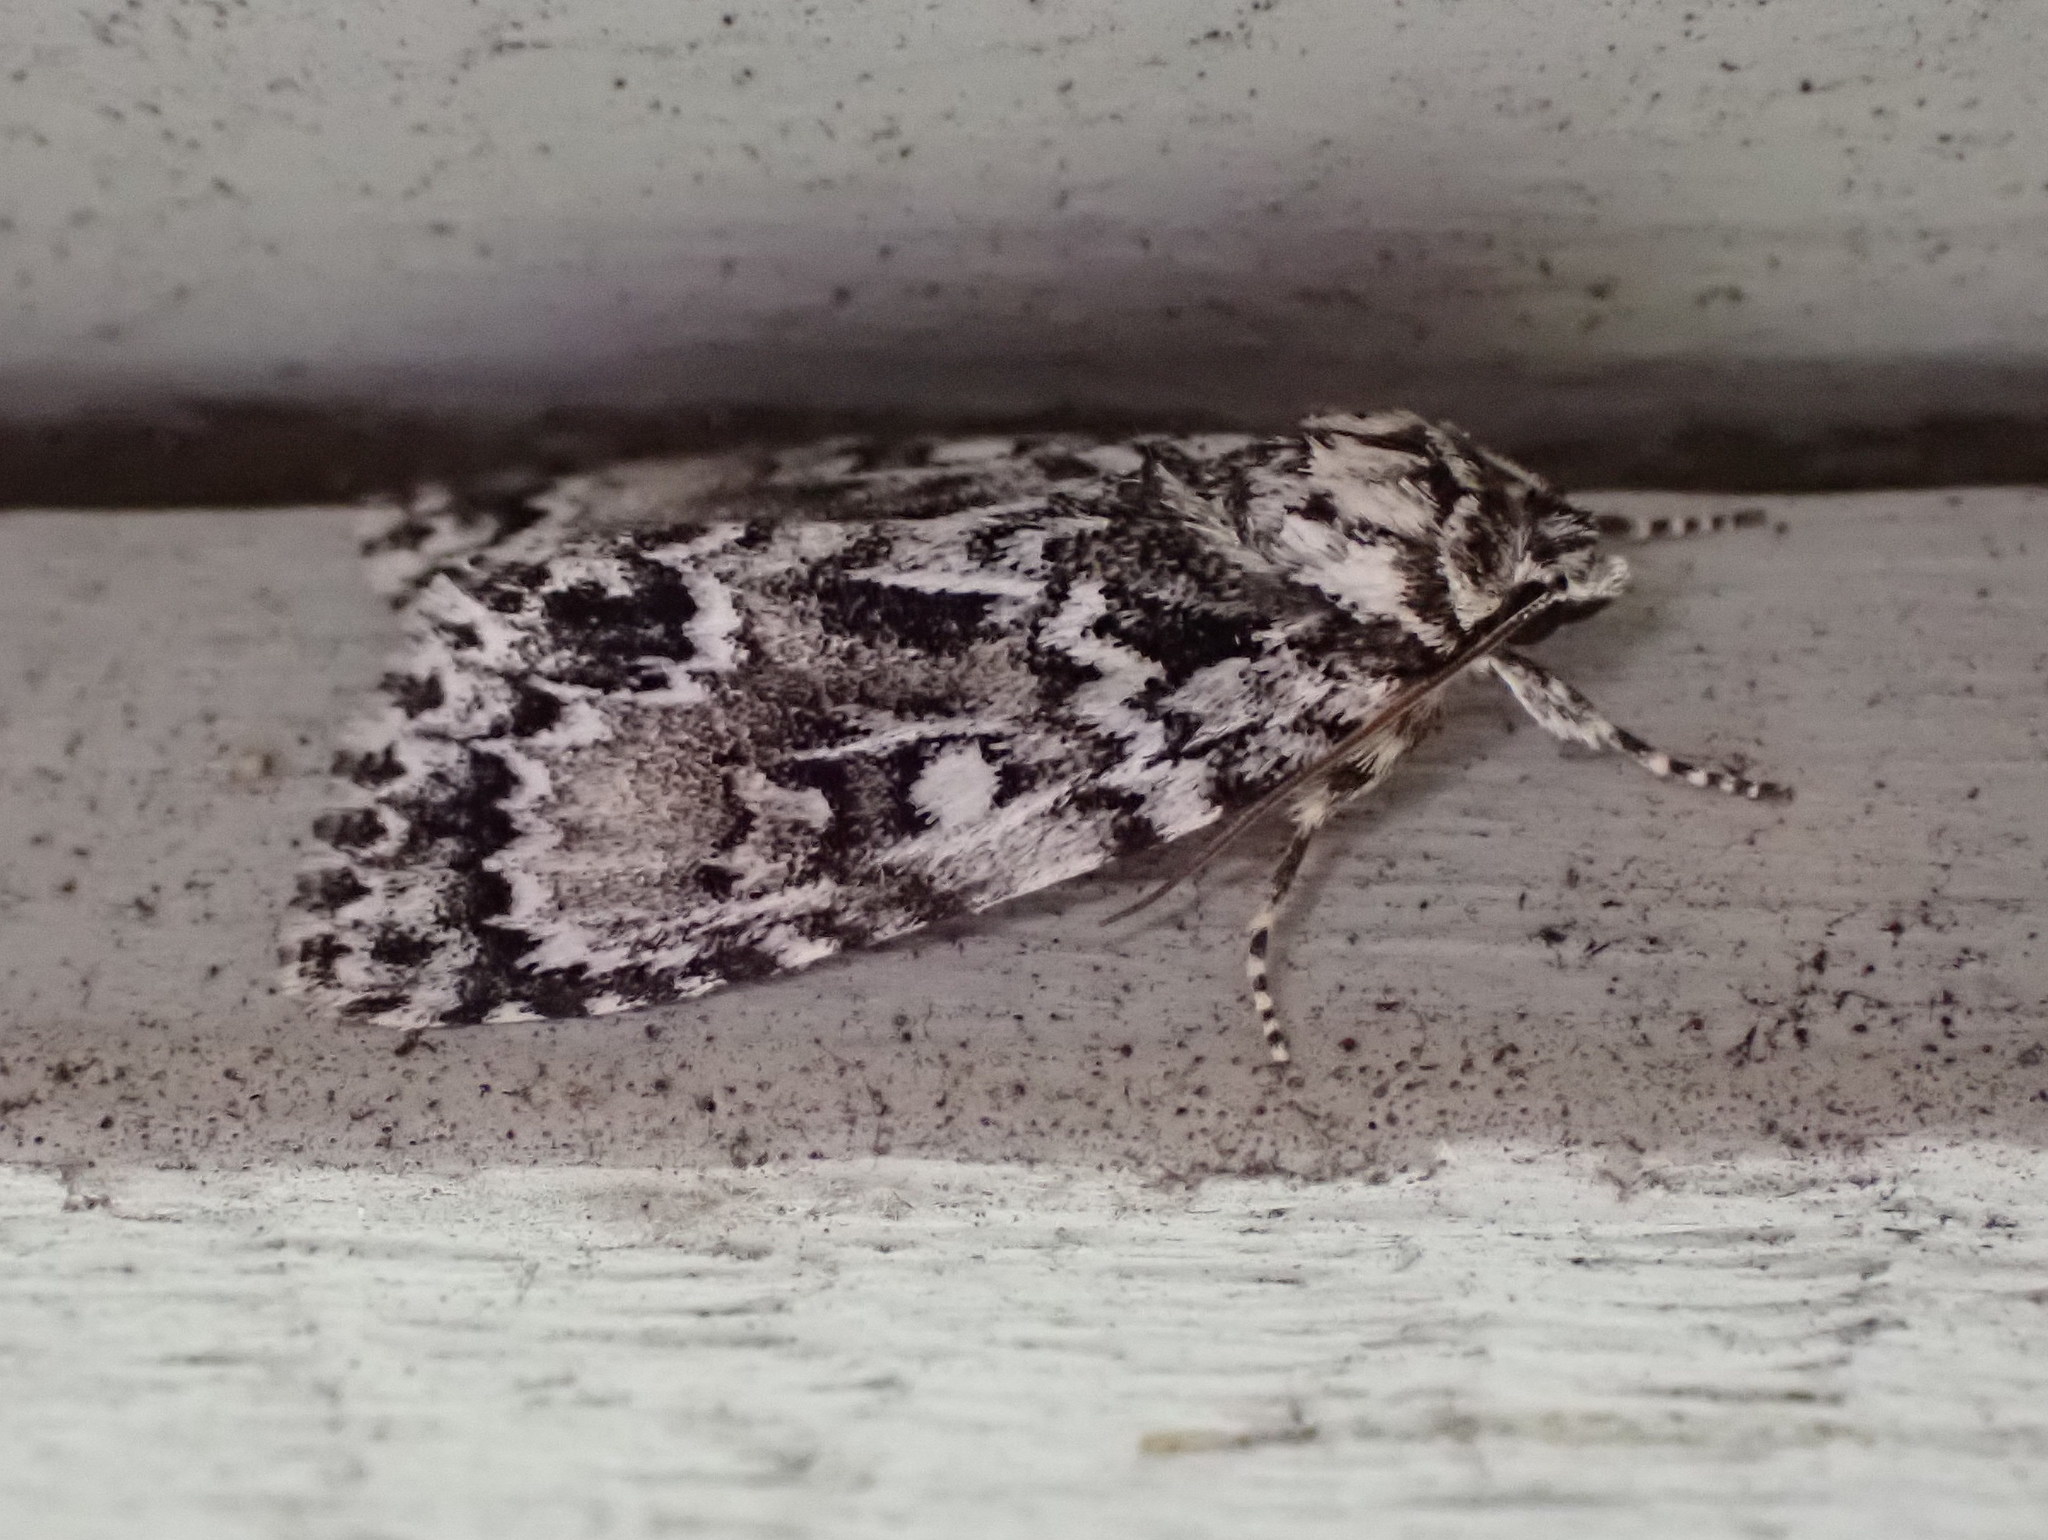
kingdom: Animalia
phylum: Arthropoda
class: Insecta
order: Lepidoptera
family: Noctuidae
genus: Acronicta
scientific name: Acronicta fragilis
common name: Fragile dagger
